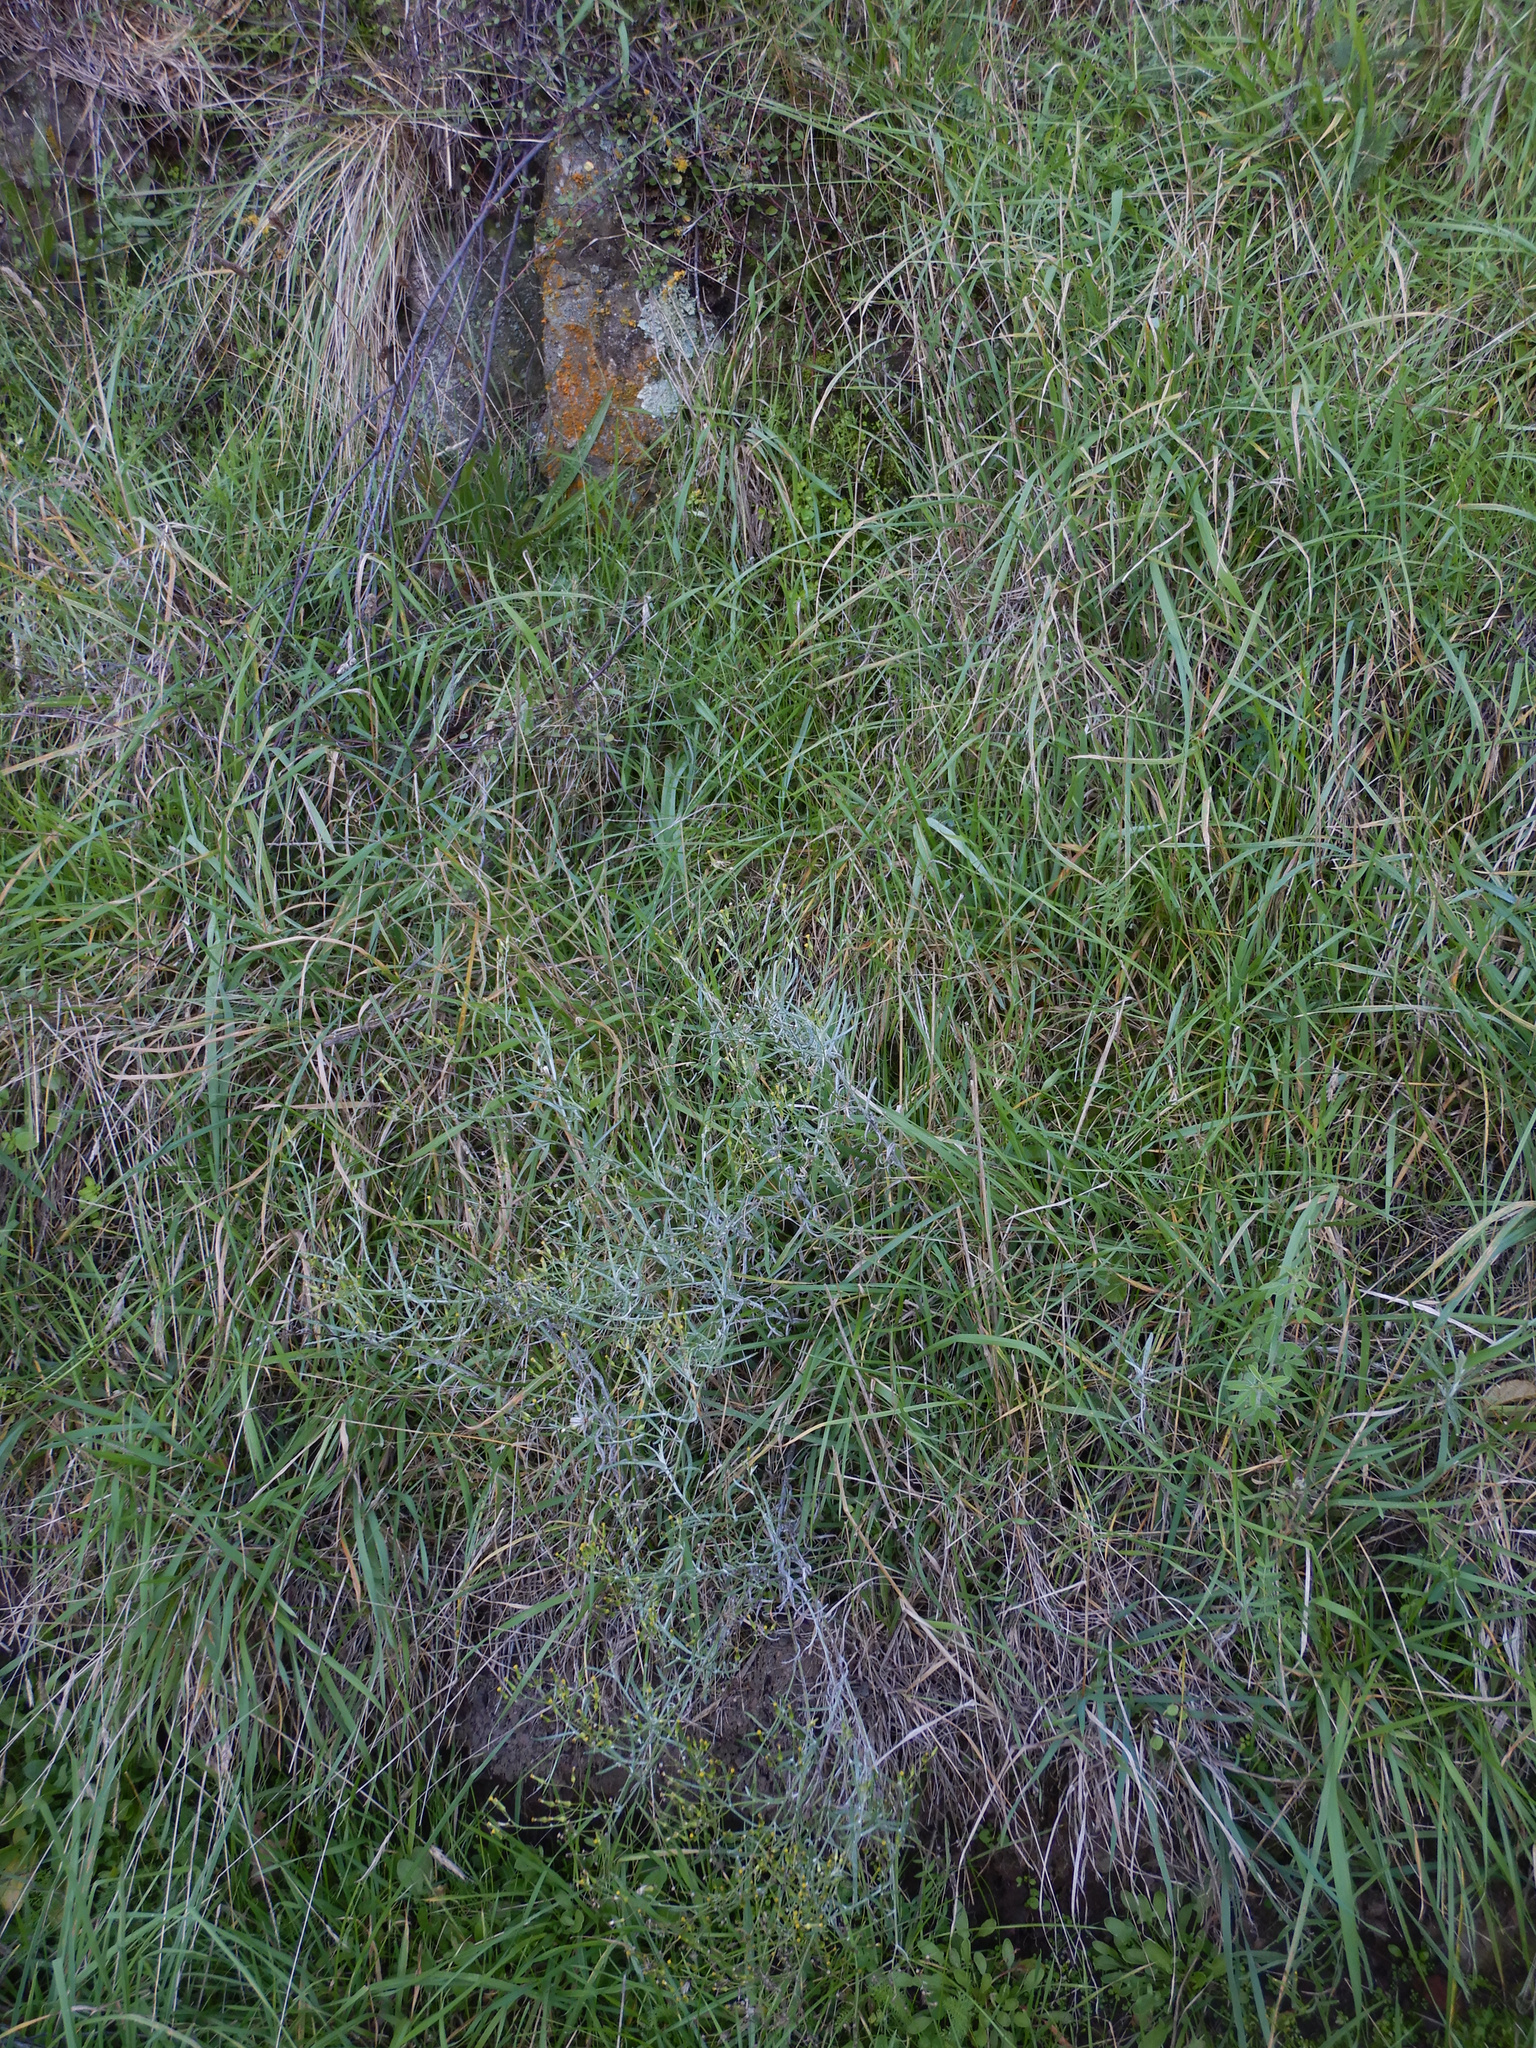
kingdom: Plantae
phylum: Tracheophyta
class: Magnoliopsida
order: Asterales
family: Asteraceae
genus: Senecio
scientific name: Senecio quadridentatus
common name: Cotton fireweed
